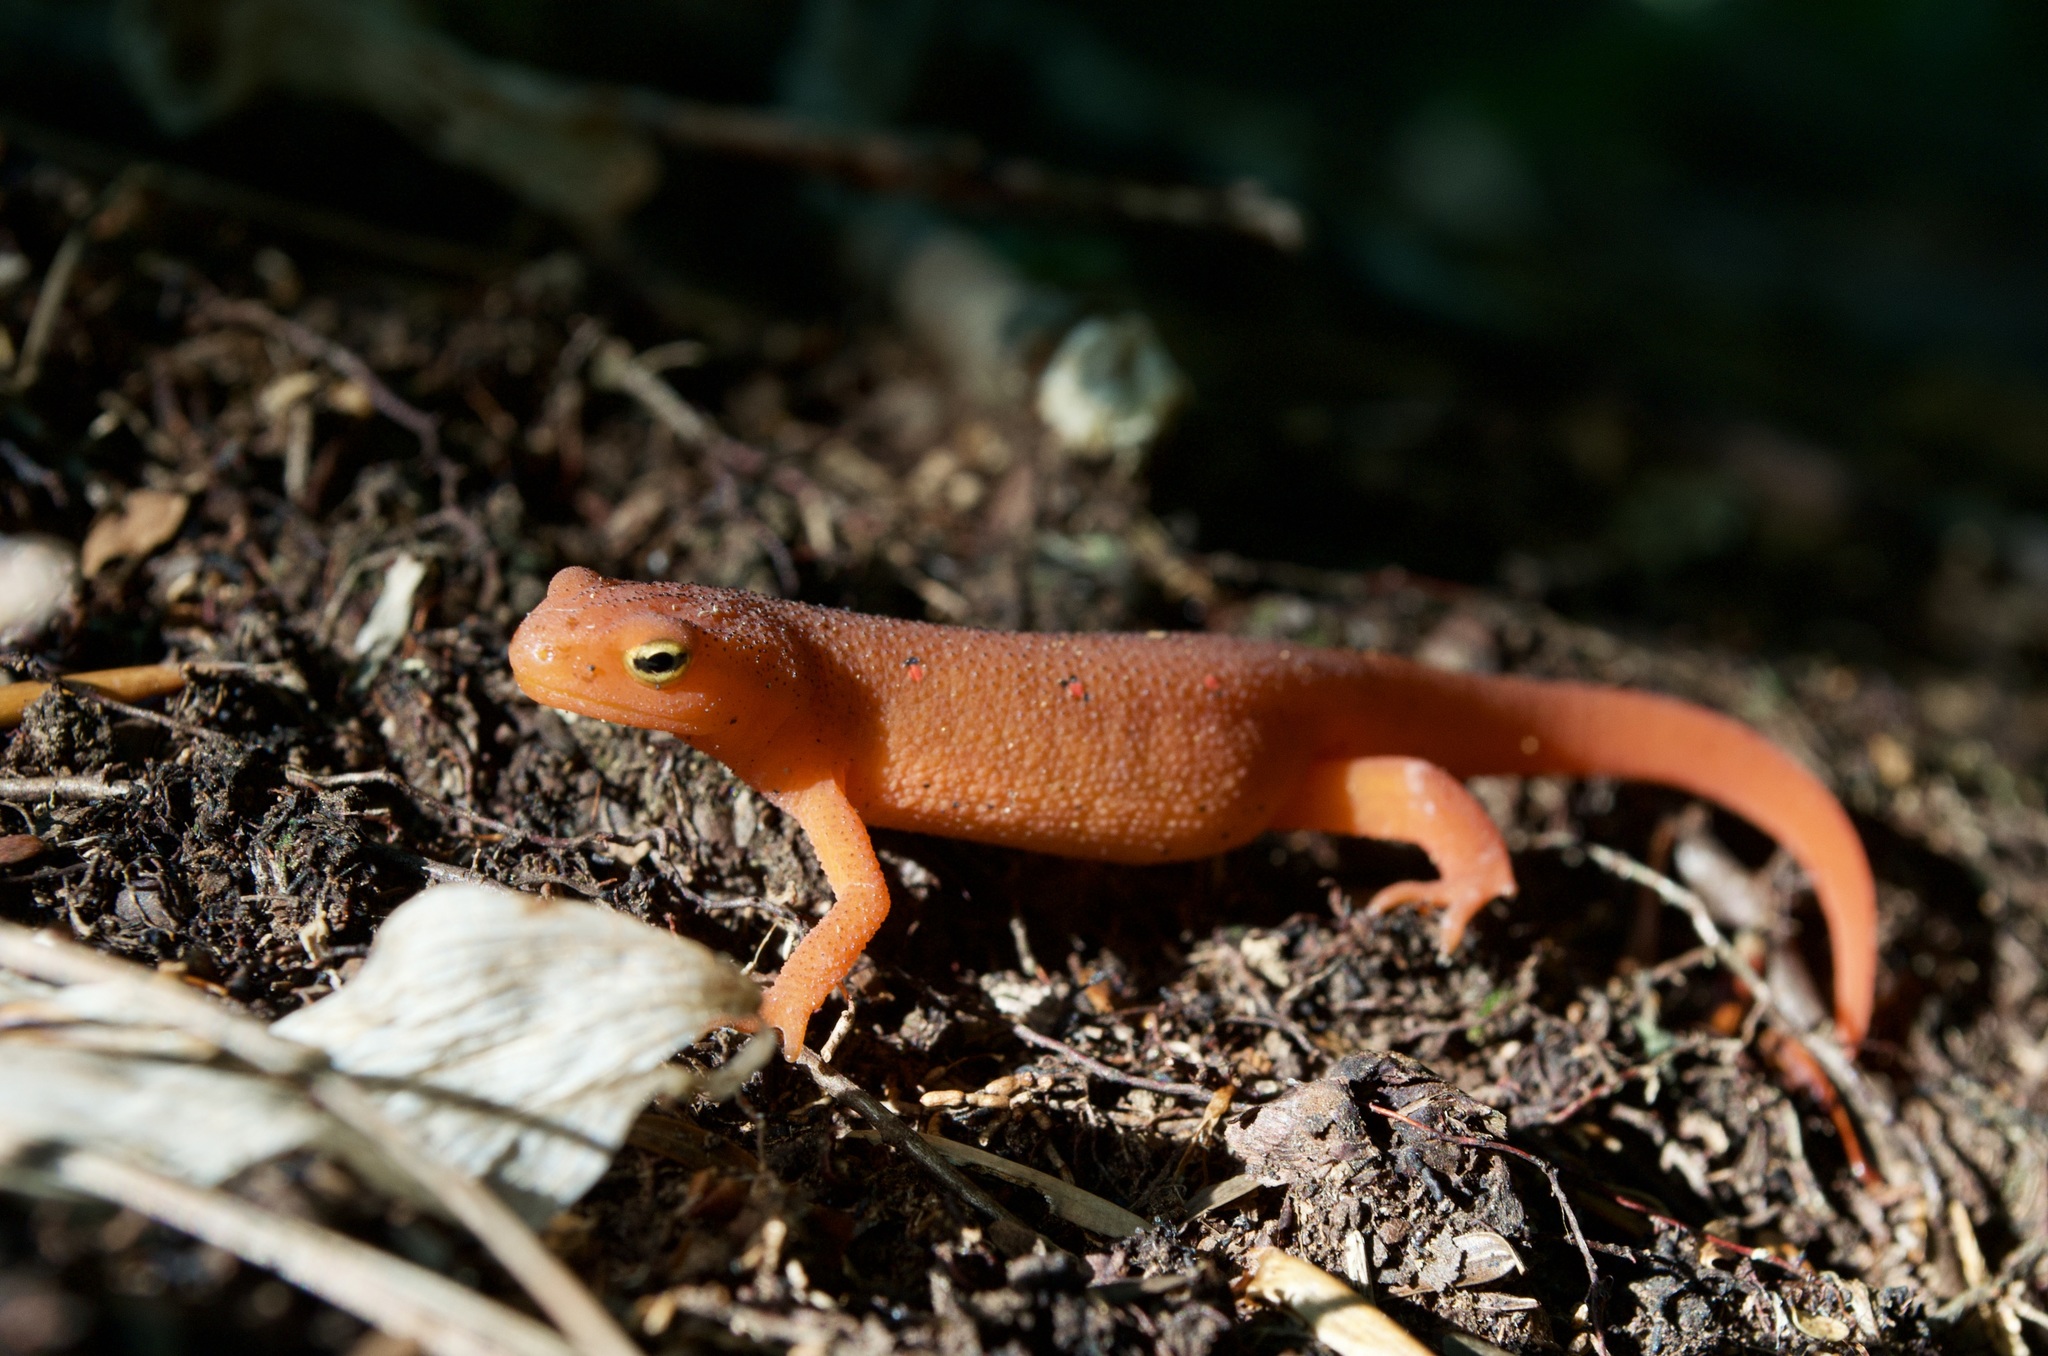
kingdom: Animalia
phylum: Chordata
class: Amphibia
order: Caudata
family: Salamandridae
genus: Notophthalmus
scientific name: Notophthalmus viridescens
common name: Eastern newt
